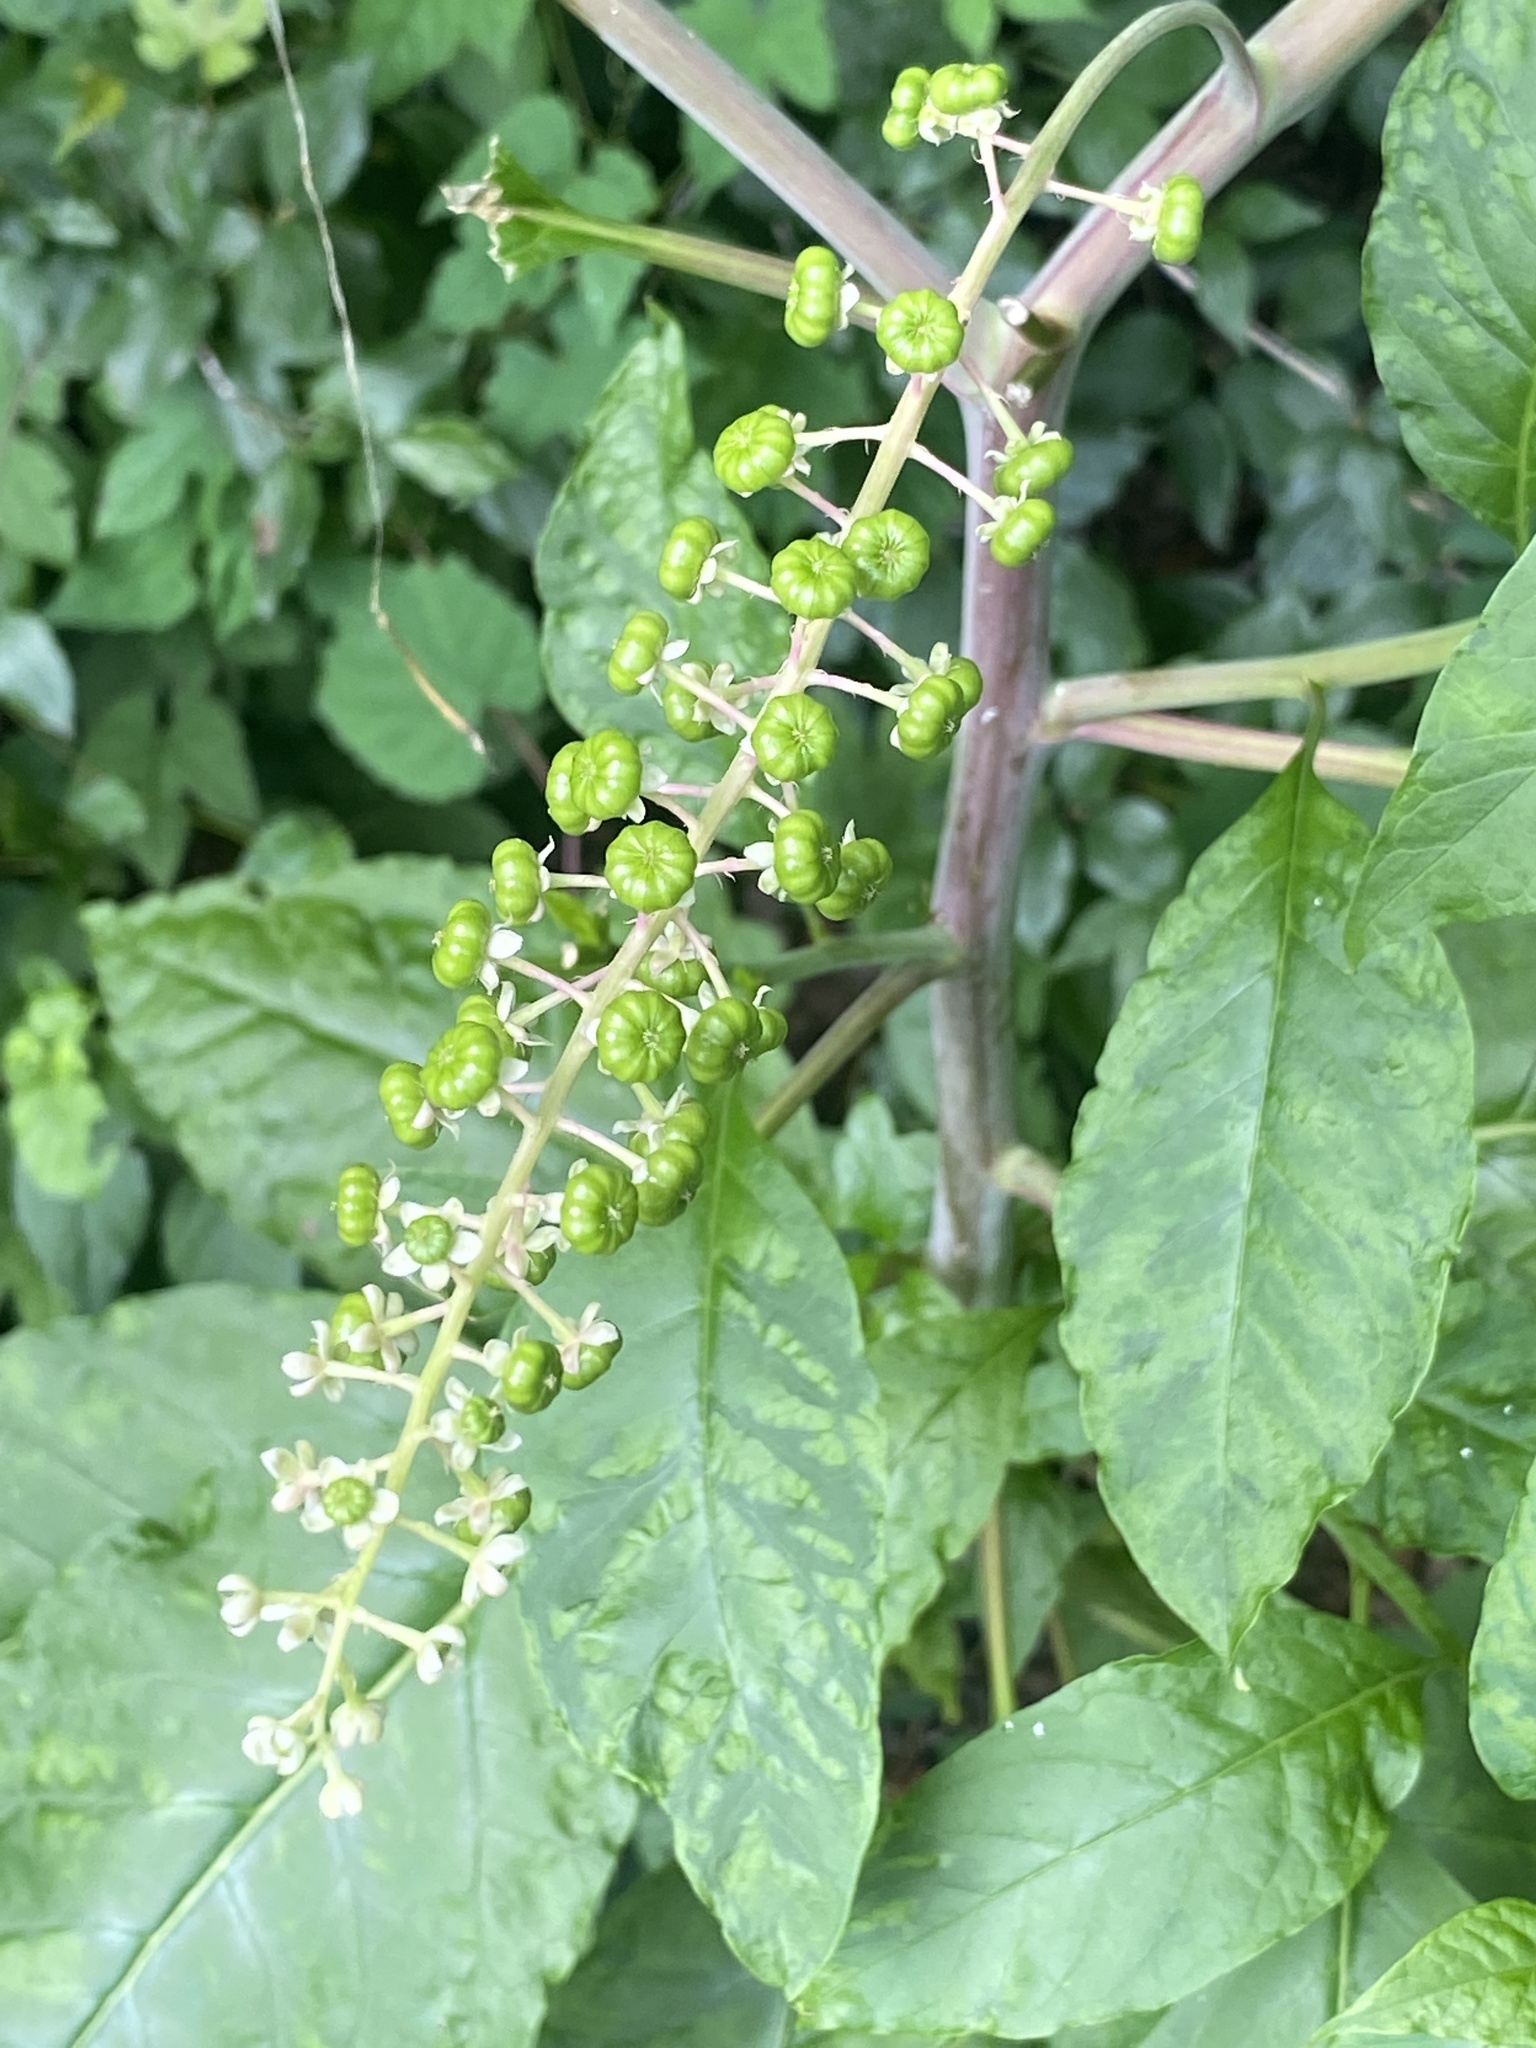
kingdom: Plantae
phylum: Tracheophyta
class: Magnoliopsida
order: Caryophyllales
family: Phytolaccaceae
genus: Phytolacca
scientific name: Phytolacca americana
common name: American pokeweed
